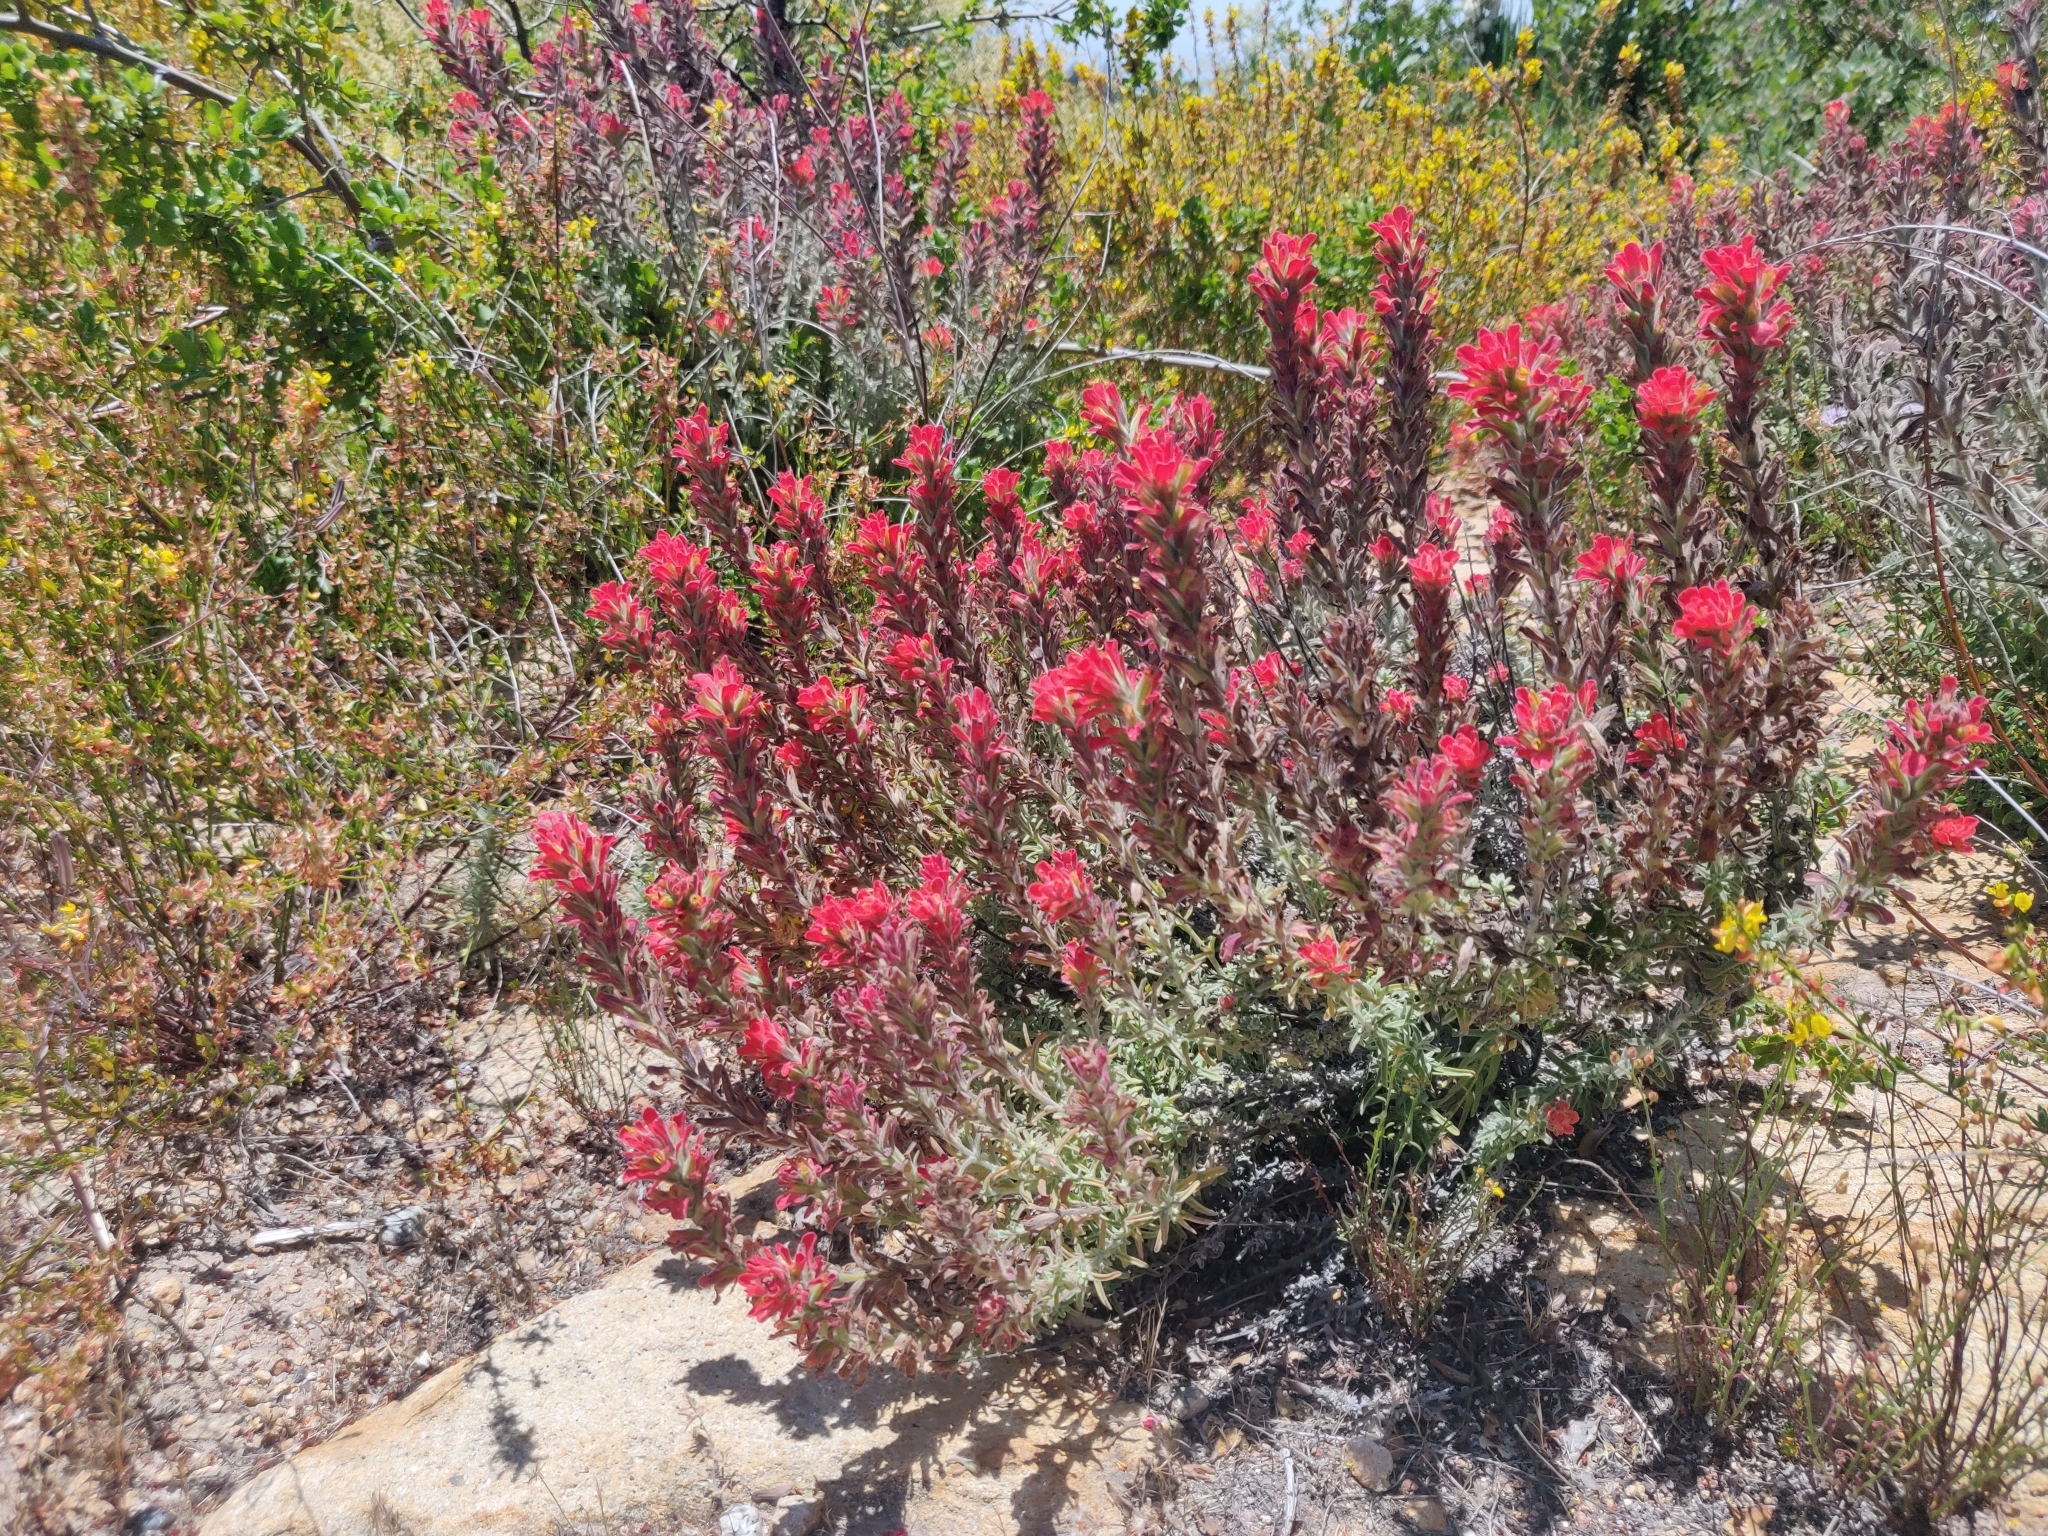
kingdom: Plantae
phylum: Tracheophyta
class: Magnoliopsida
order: Lamiales
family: Orobanchaceae
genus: Castilleja
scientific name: Castilleja foliolosa
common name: Woolly indian paintbrush
